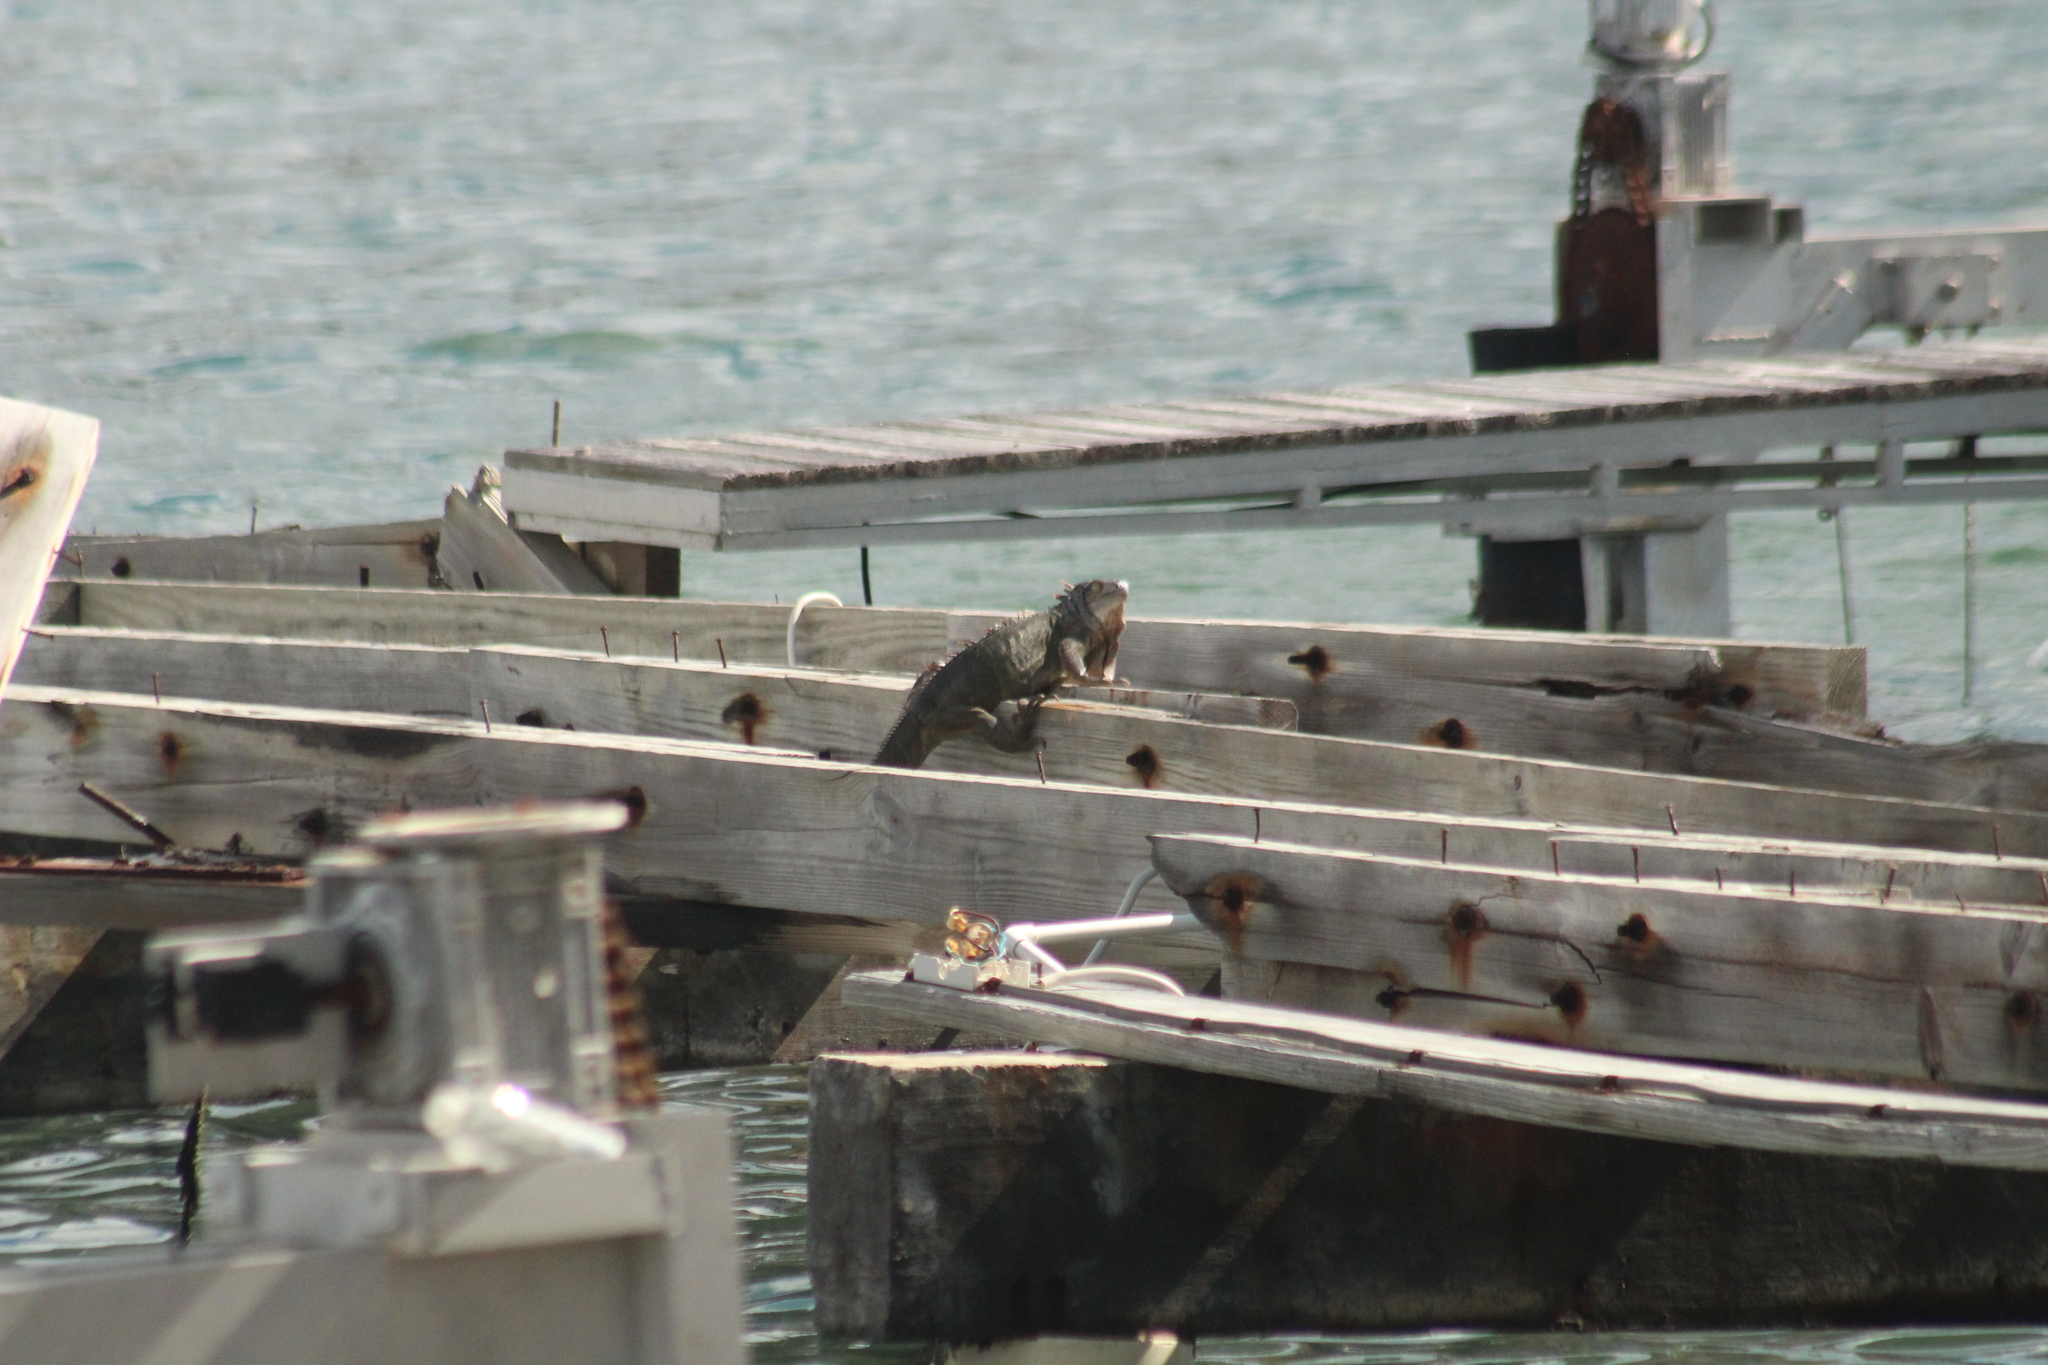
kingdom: Animalia
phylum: Chordata
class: Squamata
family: Iguanidae
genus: Iguana
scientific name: Iguana iguana
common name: Green iguana
